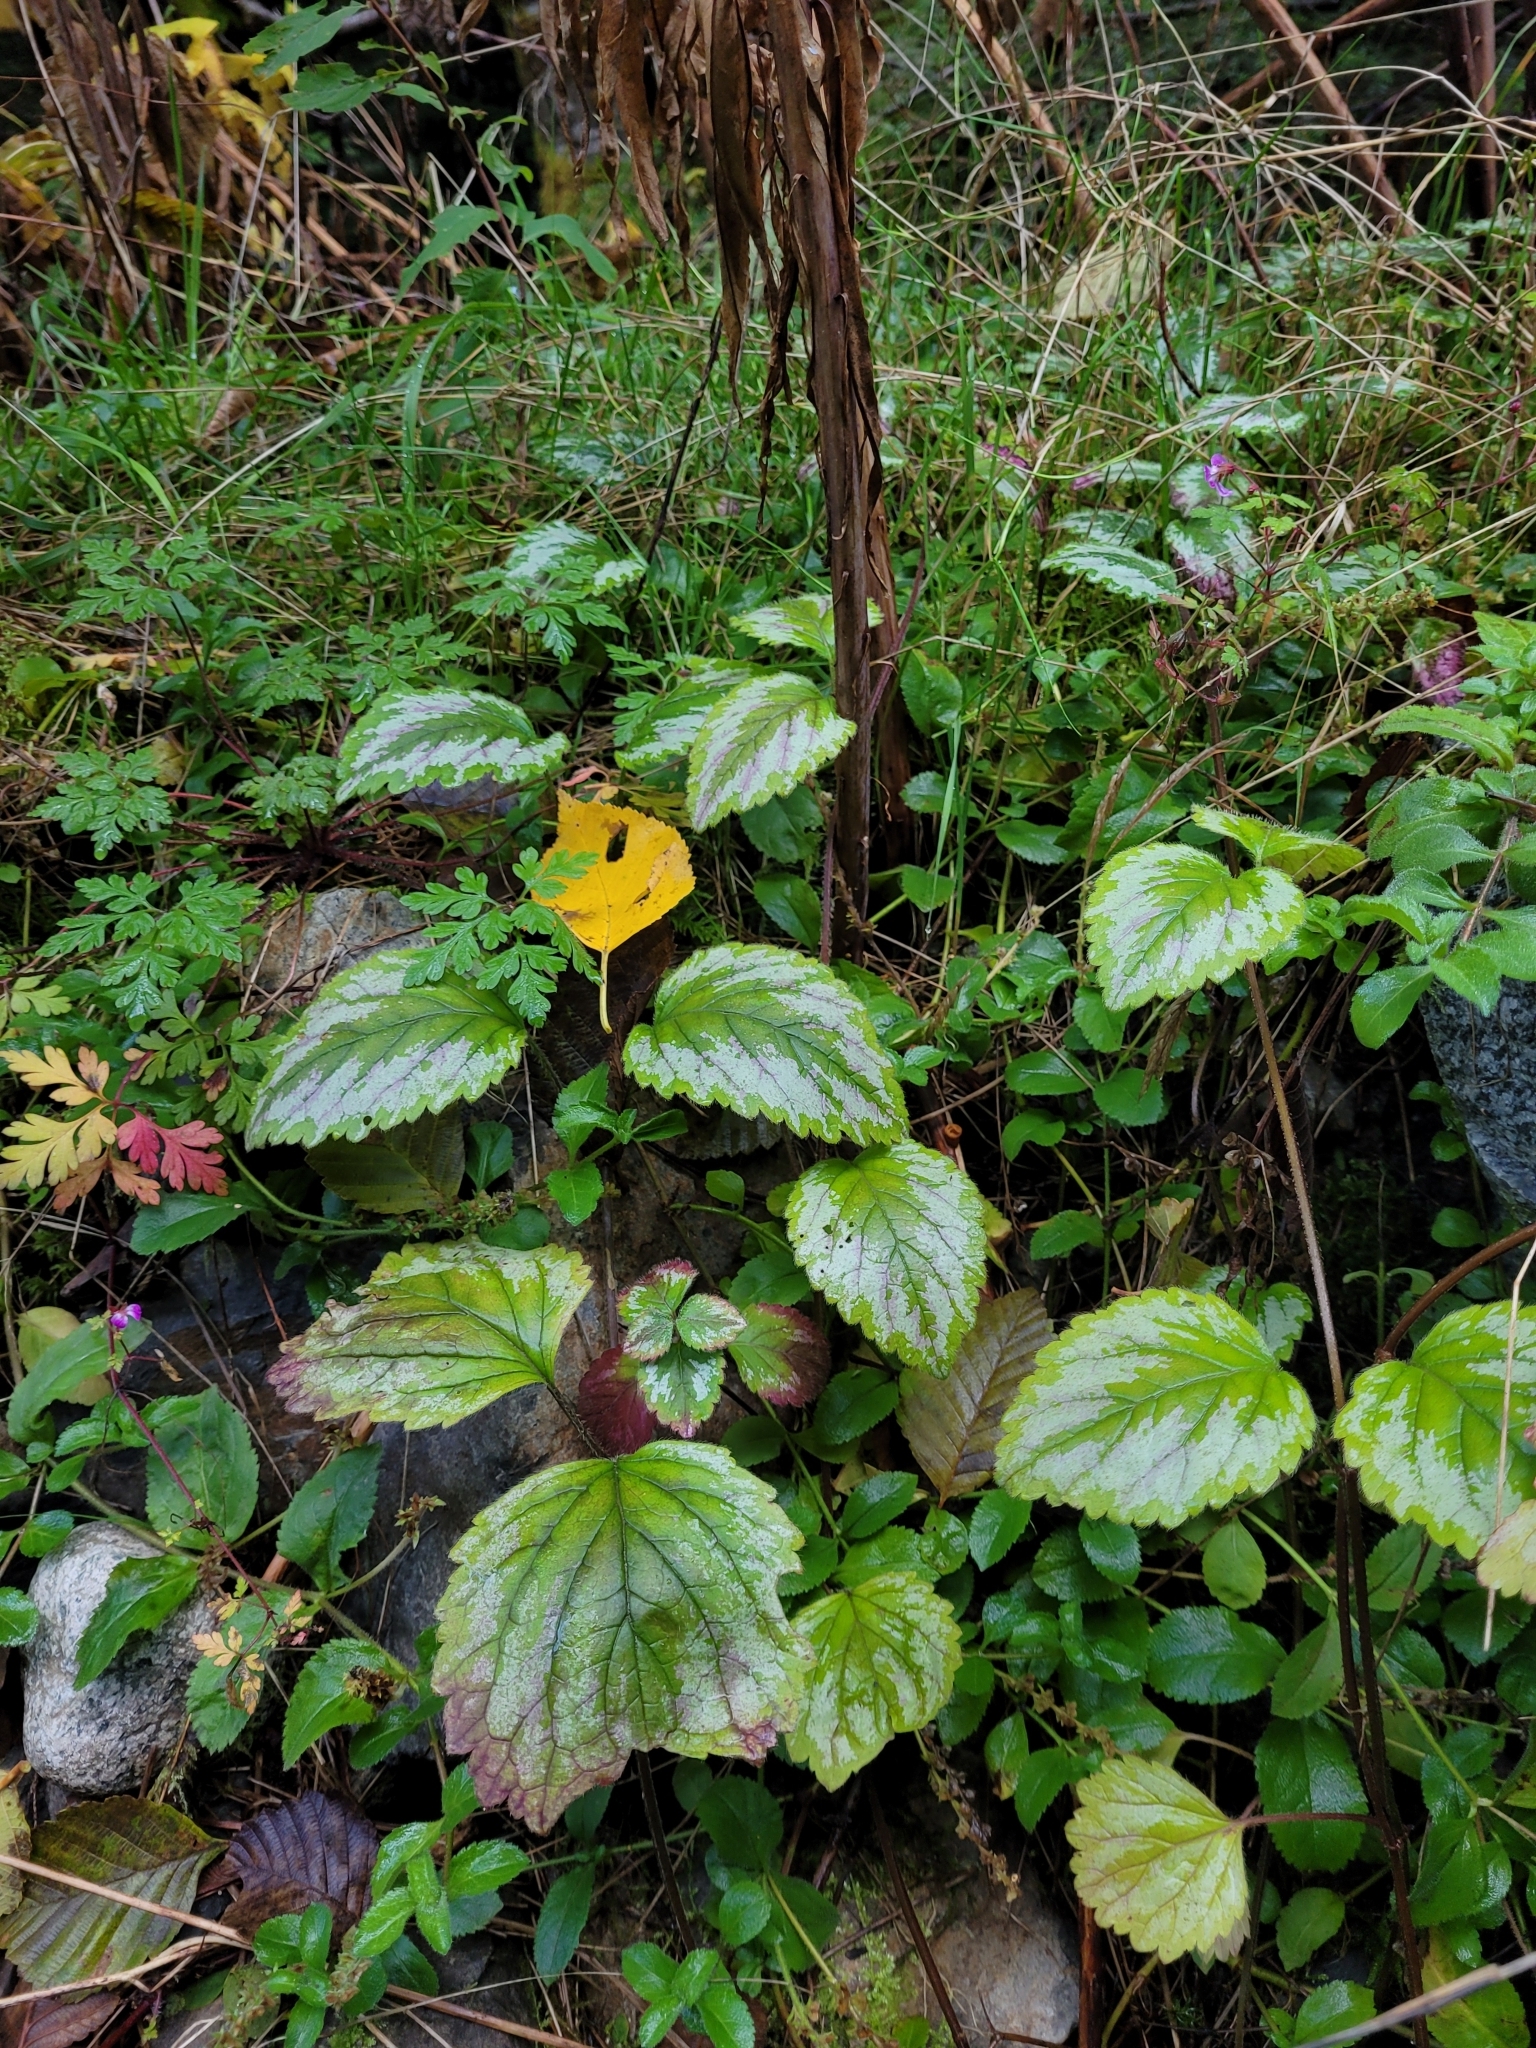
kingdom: Plantae
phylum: Tracheophyta
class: Magnoliopsida
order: Lamiales
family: Lamiaceae
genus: Lamium
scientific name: Lamium galeobdolon
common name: Yellow archangel
